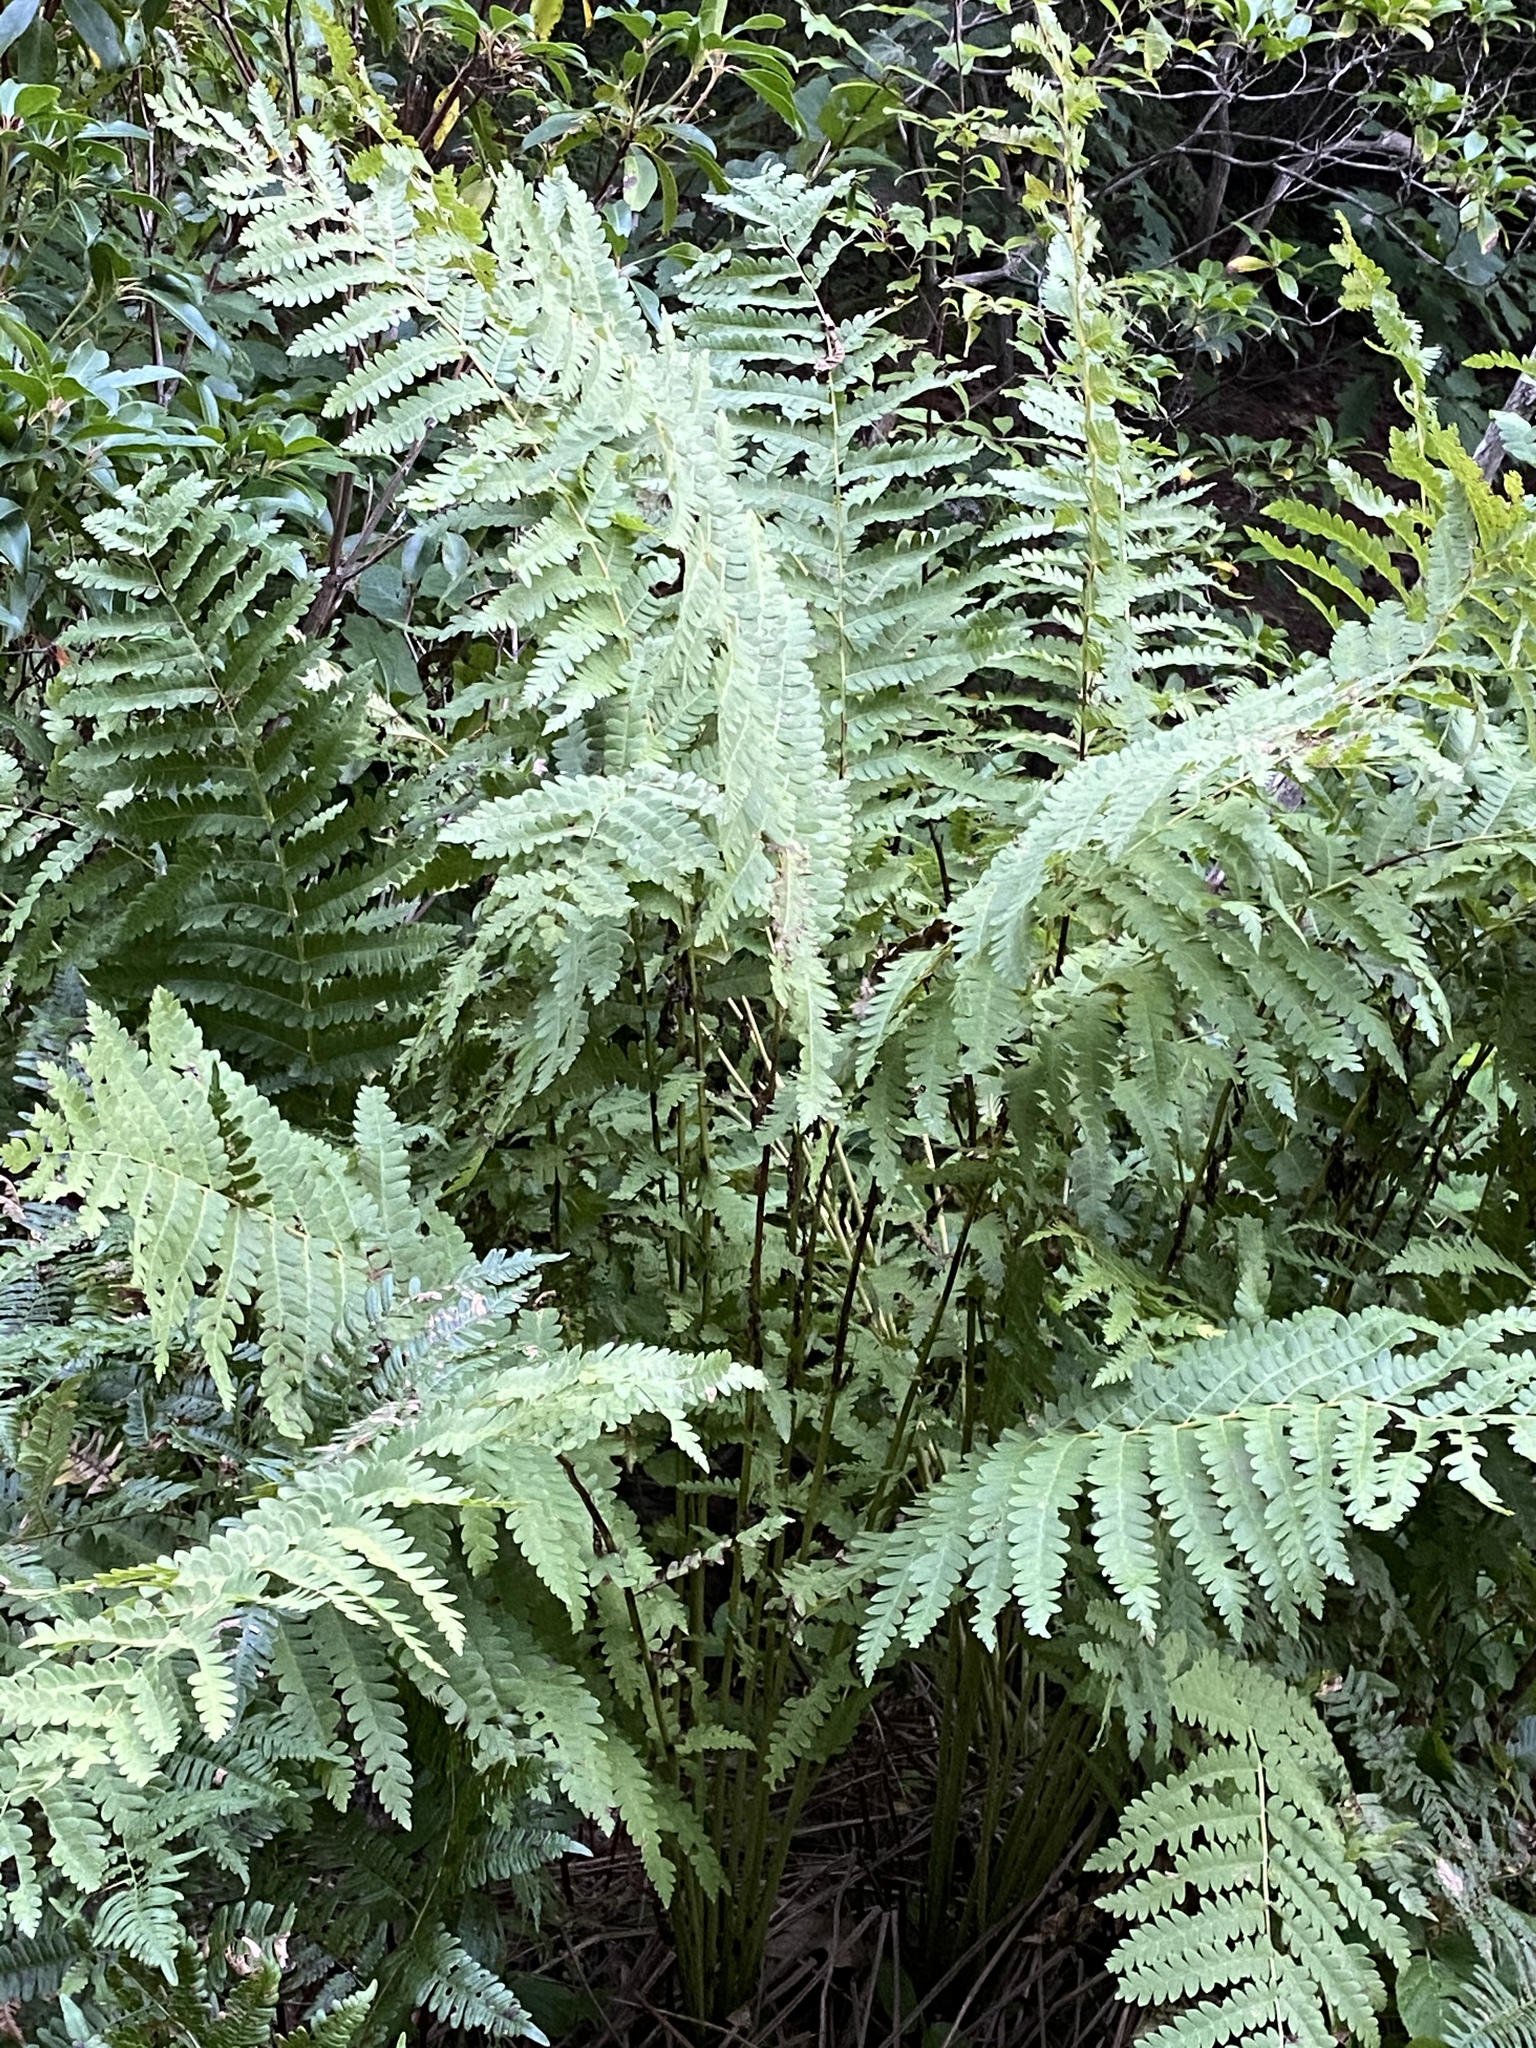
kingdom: Plantae
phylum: Tracheophyta
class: Polypodiopsida
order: Osmundales
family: Osmundaceae
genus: Claytosmunda
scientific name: Claytosmunda claytoniana
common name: Clayton's fern
